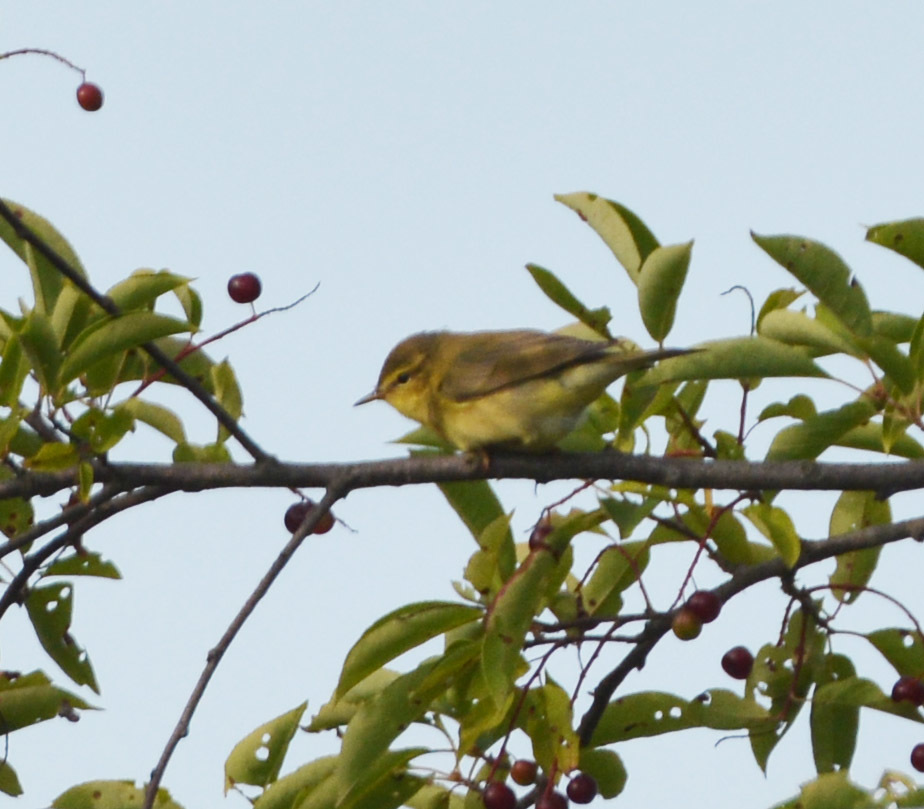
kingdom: Animalia
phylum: Chordata
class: Aves
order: Passeriformes
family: Phylloscopidae
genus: Phylloscopus
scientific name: Phylloscopus trochilus
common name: Willow warbler
